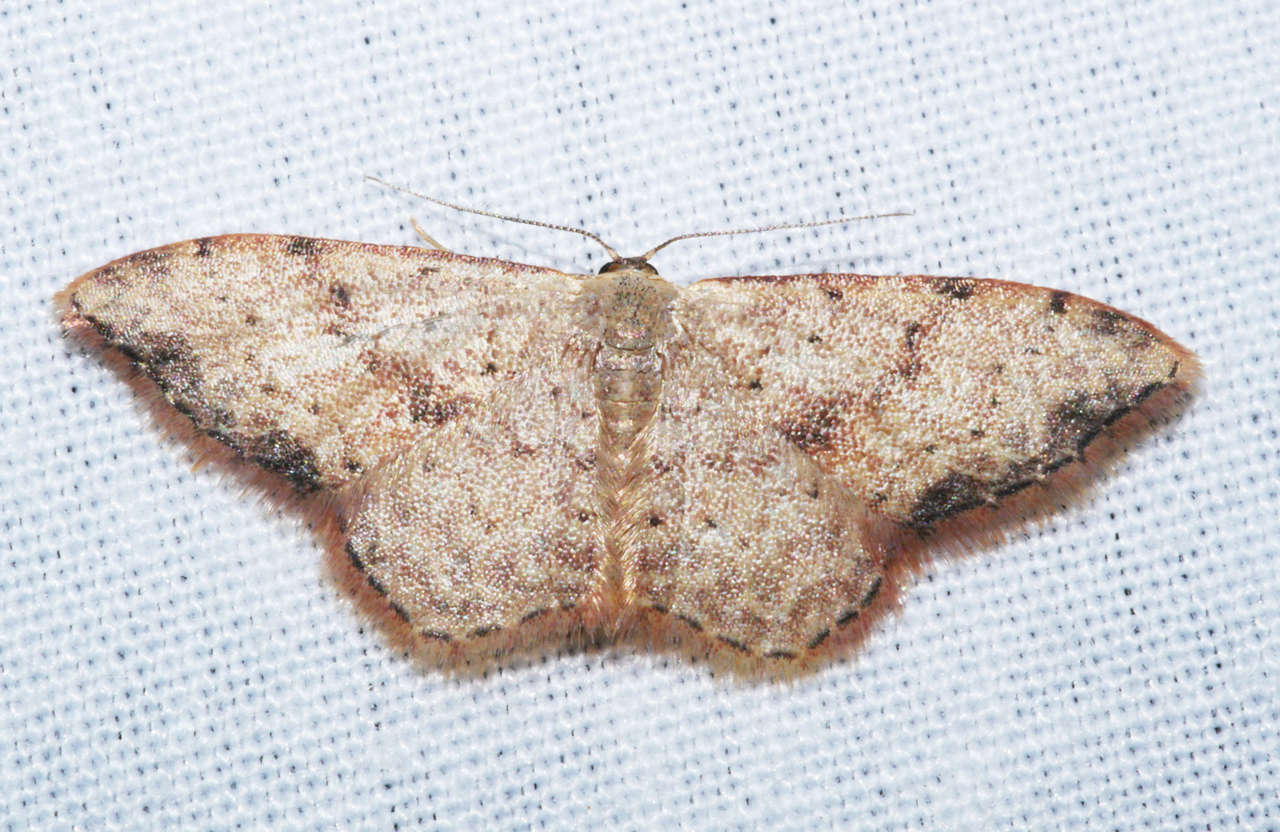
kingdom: Animalia
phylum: Arthropoda
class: Insecta
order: Lepidoptera
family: Geometridae
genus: Idaea
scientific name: Idaea halmaea
